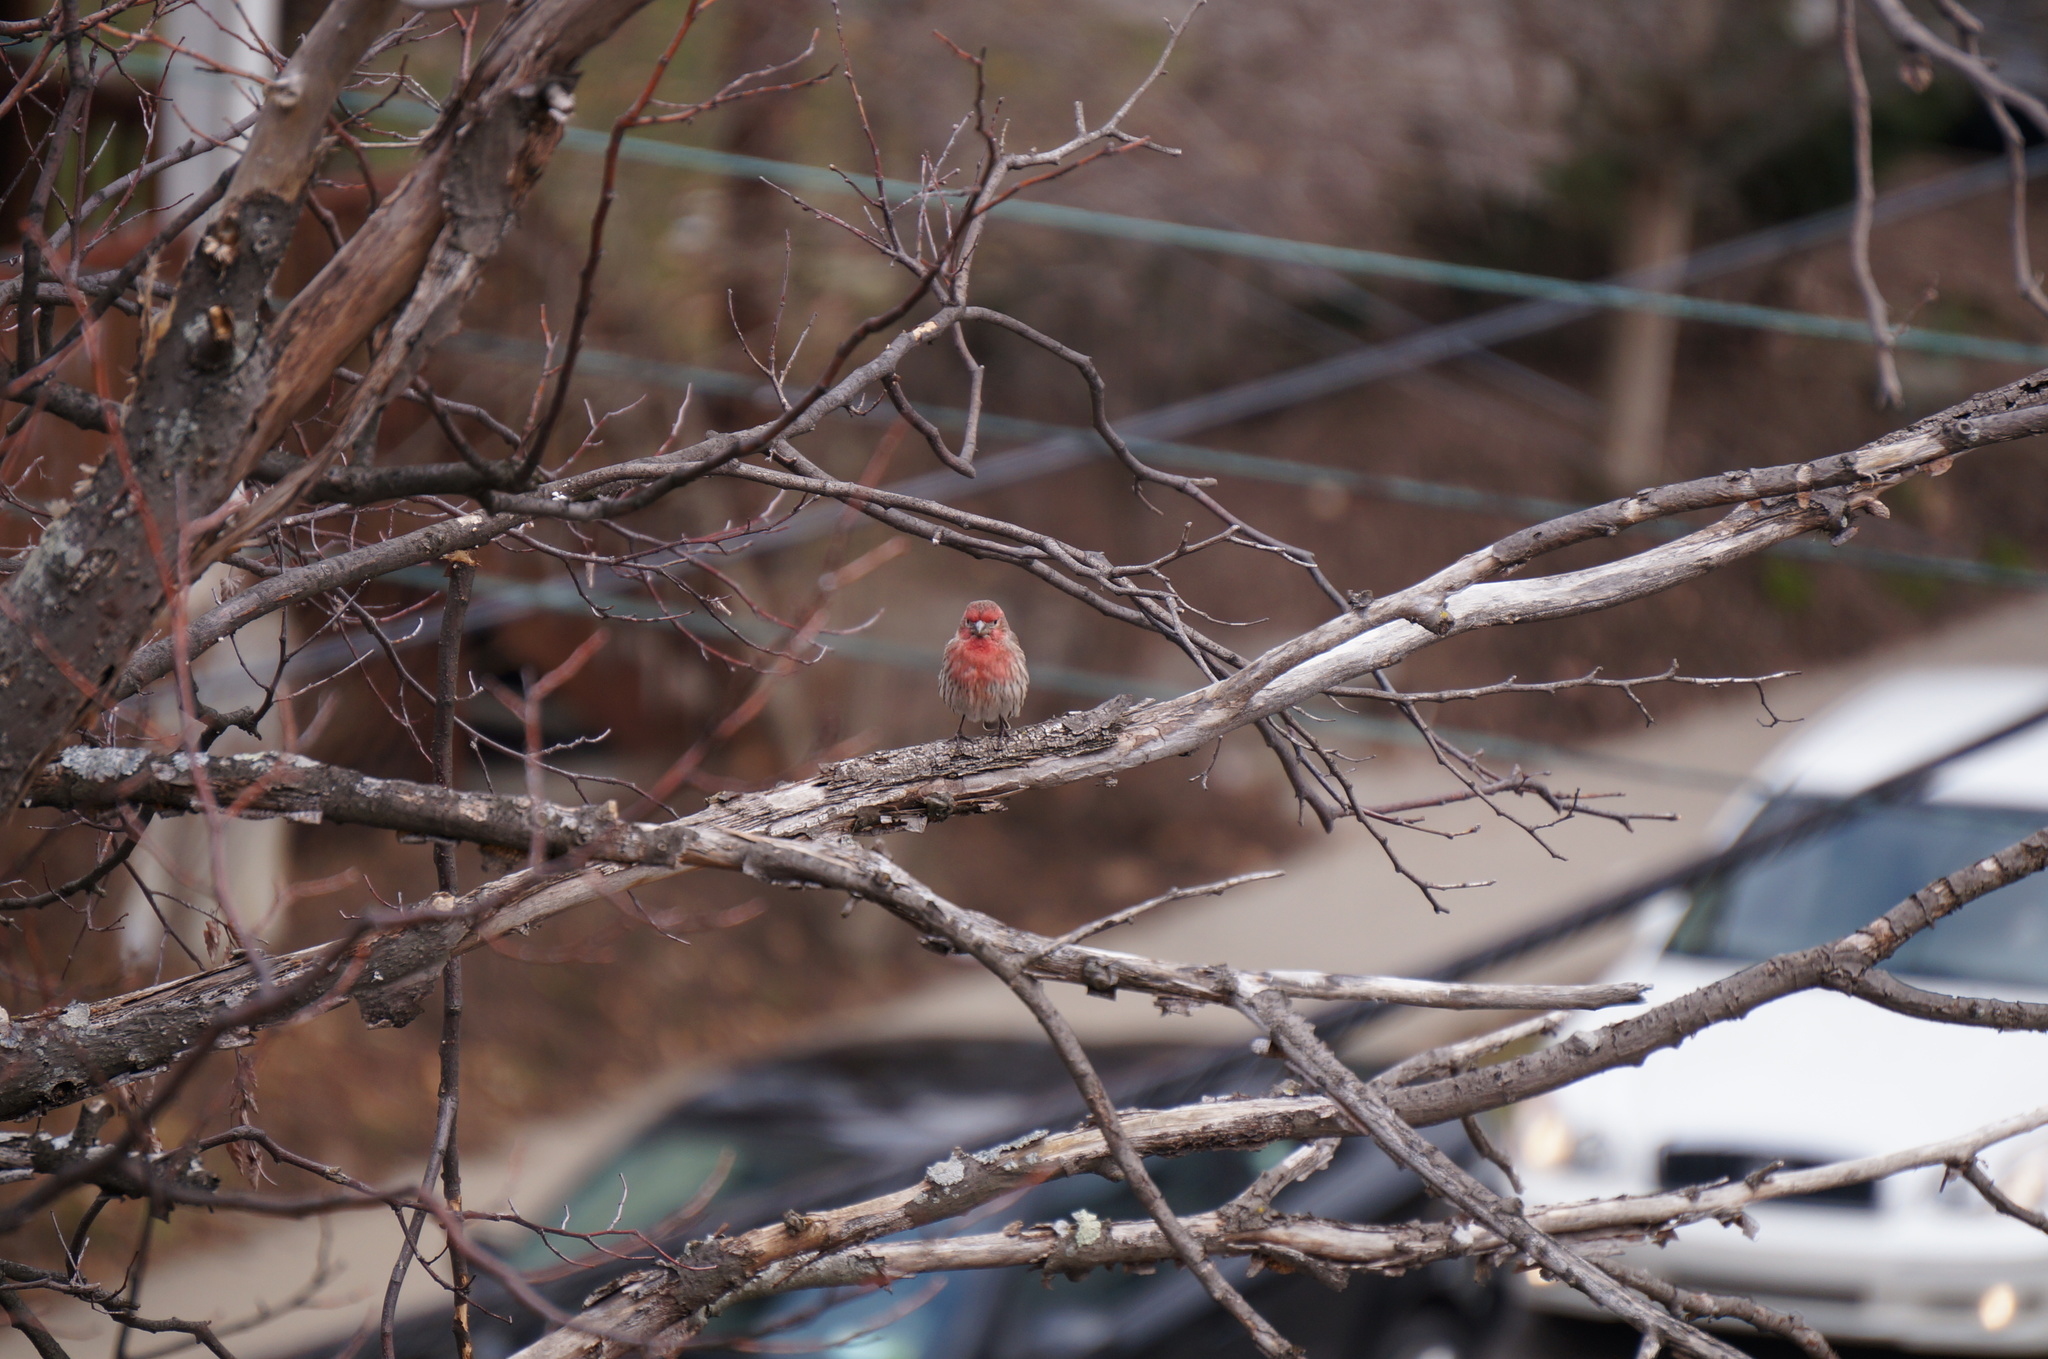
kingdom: Animalia
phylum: Chordata
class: Aves
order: Passeriformes
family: Fringillidae
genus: Haemorhous
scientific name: Haemorhous mexicanus
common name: House finch
